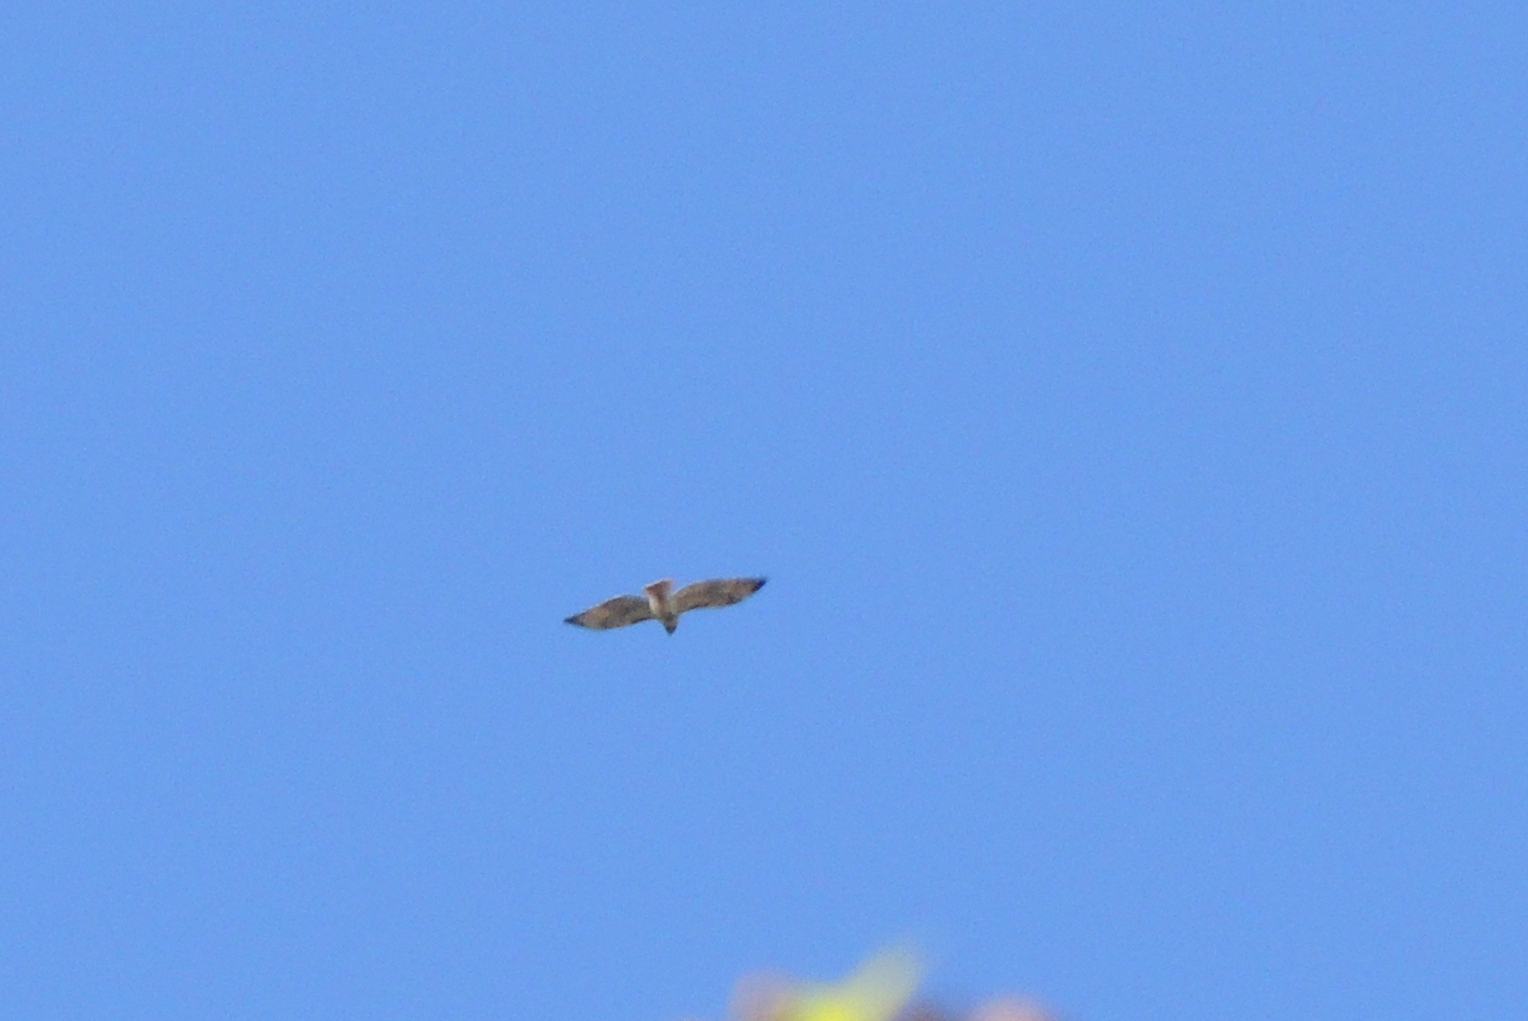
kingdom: Animalia
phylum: Chordata
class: Aves
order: Accipitriformes
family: Accipitridae
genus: Buteo
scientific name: Buteo jamaicensis
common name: Red-tailed hawk
